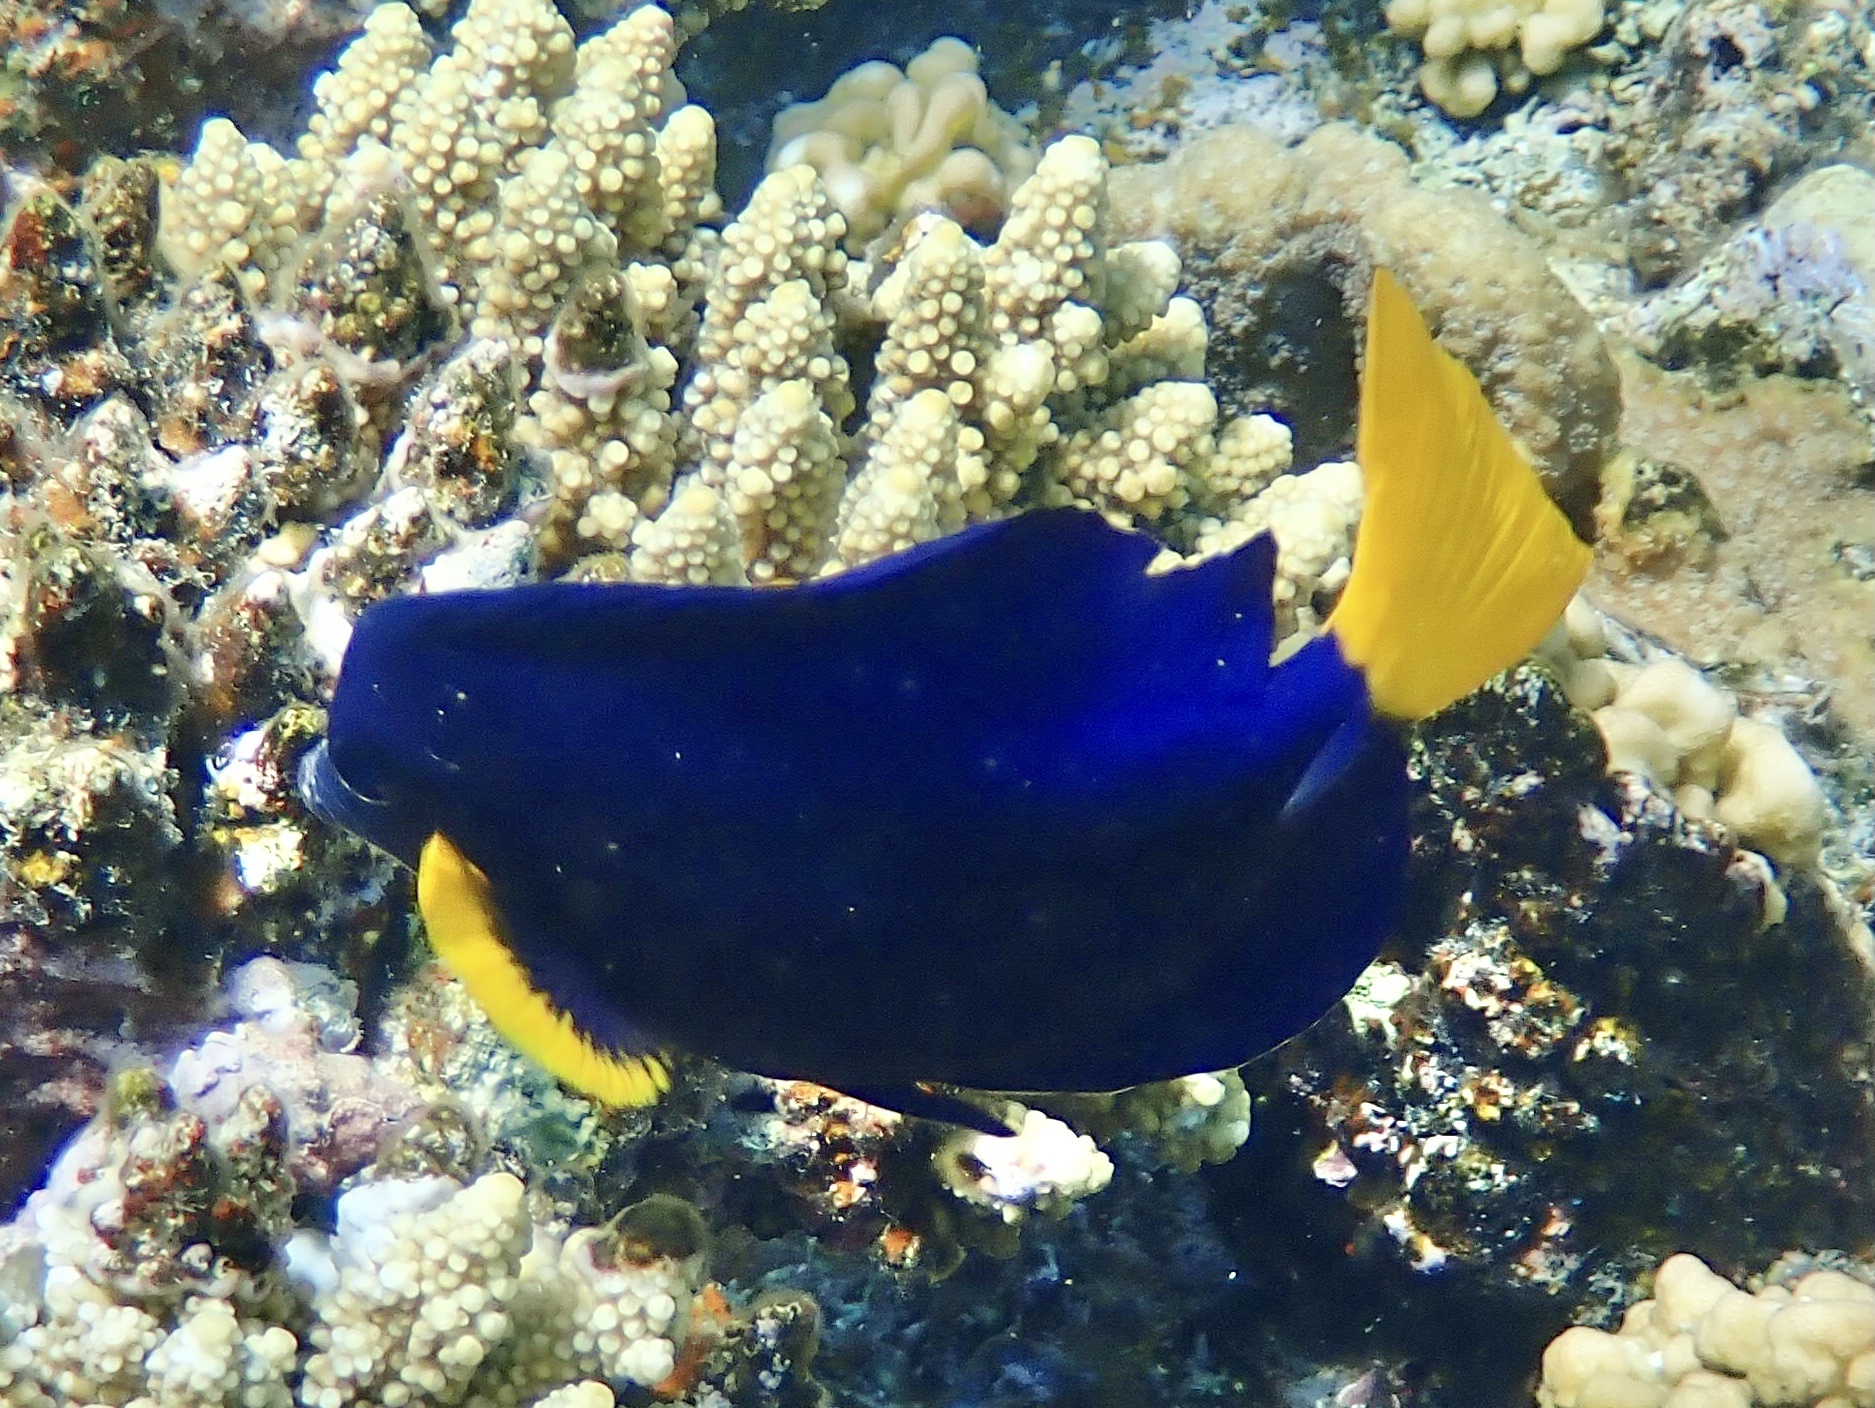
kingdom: Animalia
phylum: Chordata
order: Perciformes
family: Acanthuridae
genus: Zebrasoma
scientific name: Zebrasoma xanthurum
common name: Purple tang
